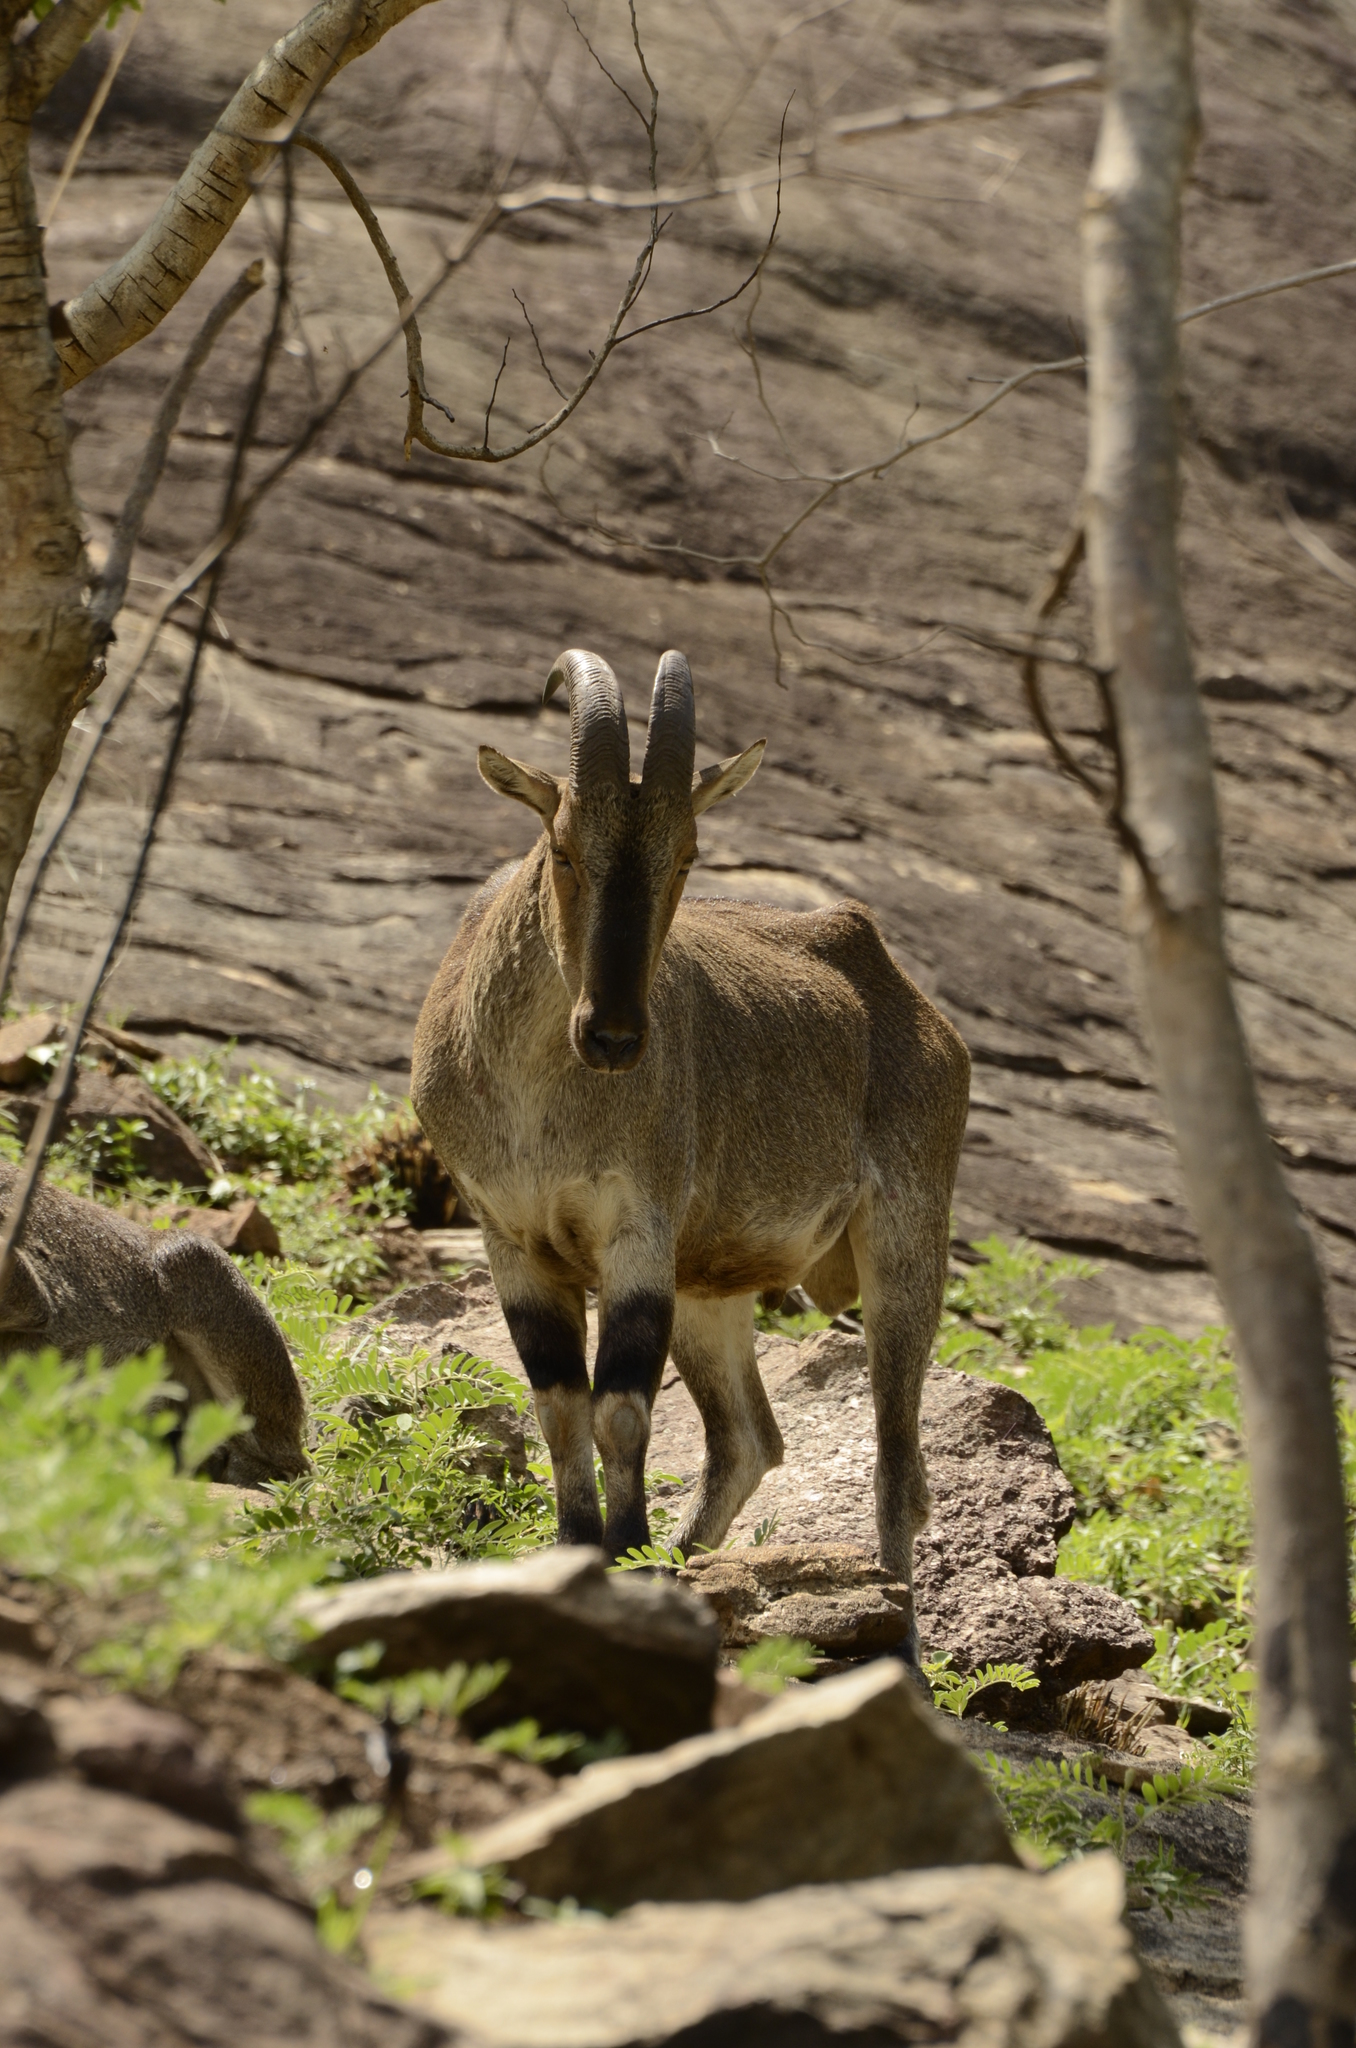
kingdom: Animalia
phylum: Chordata
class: Mammalia
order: Artiodactyla
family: Bovidae
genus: Hemitragus
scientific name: Hemitragus hylocrius
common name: Nilgiri tahr
